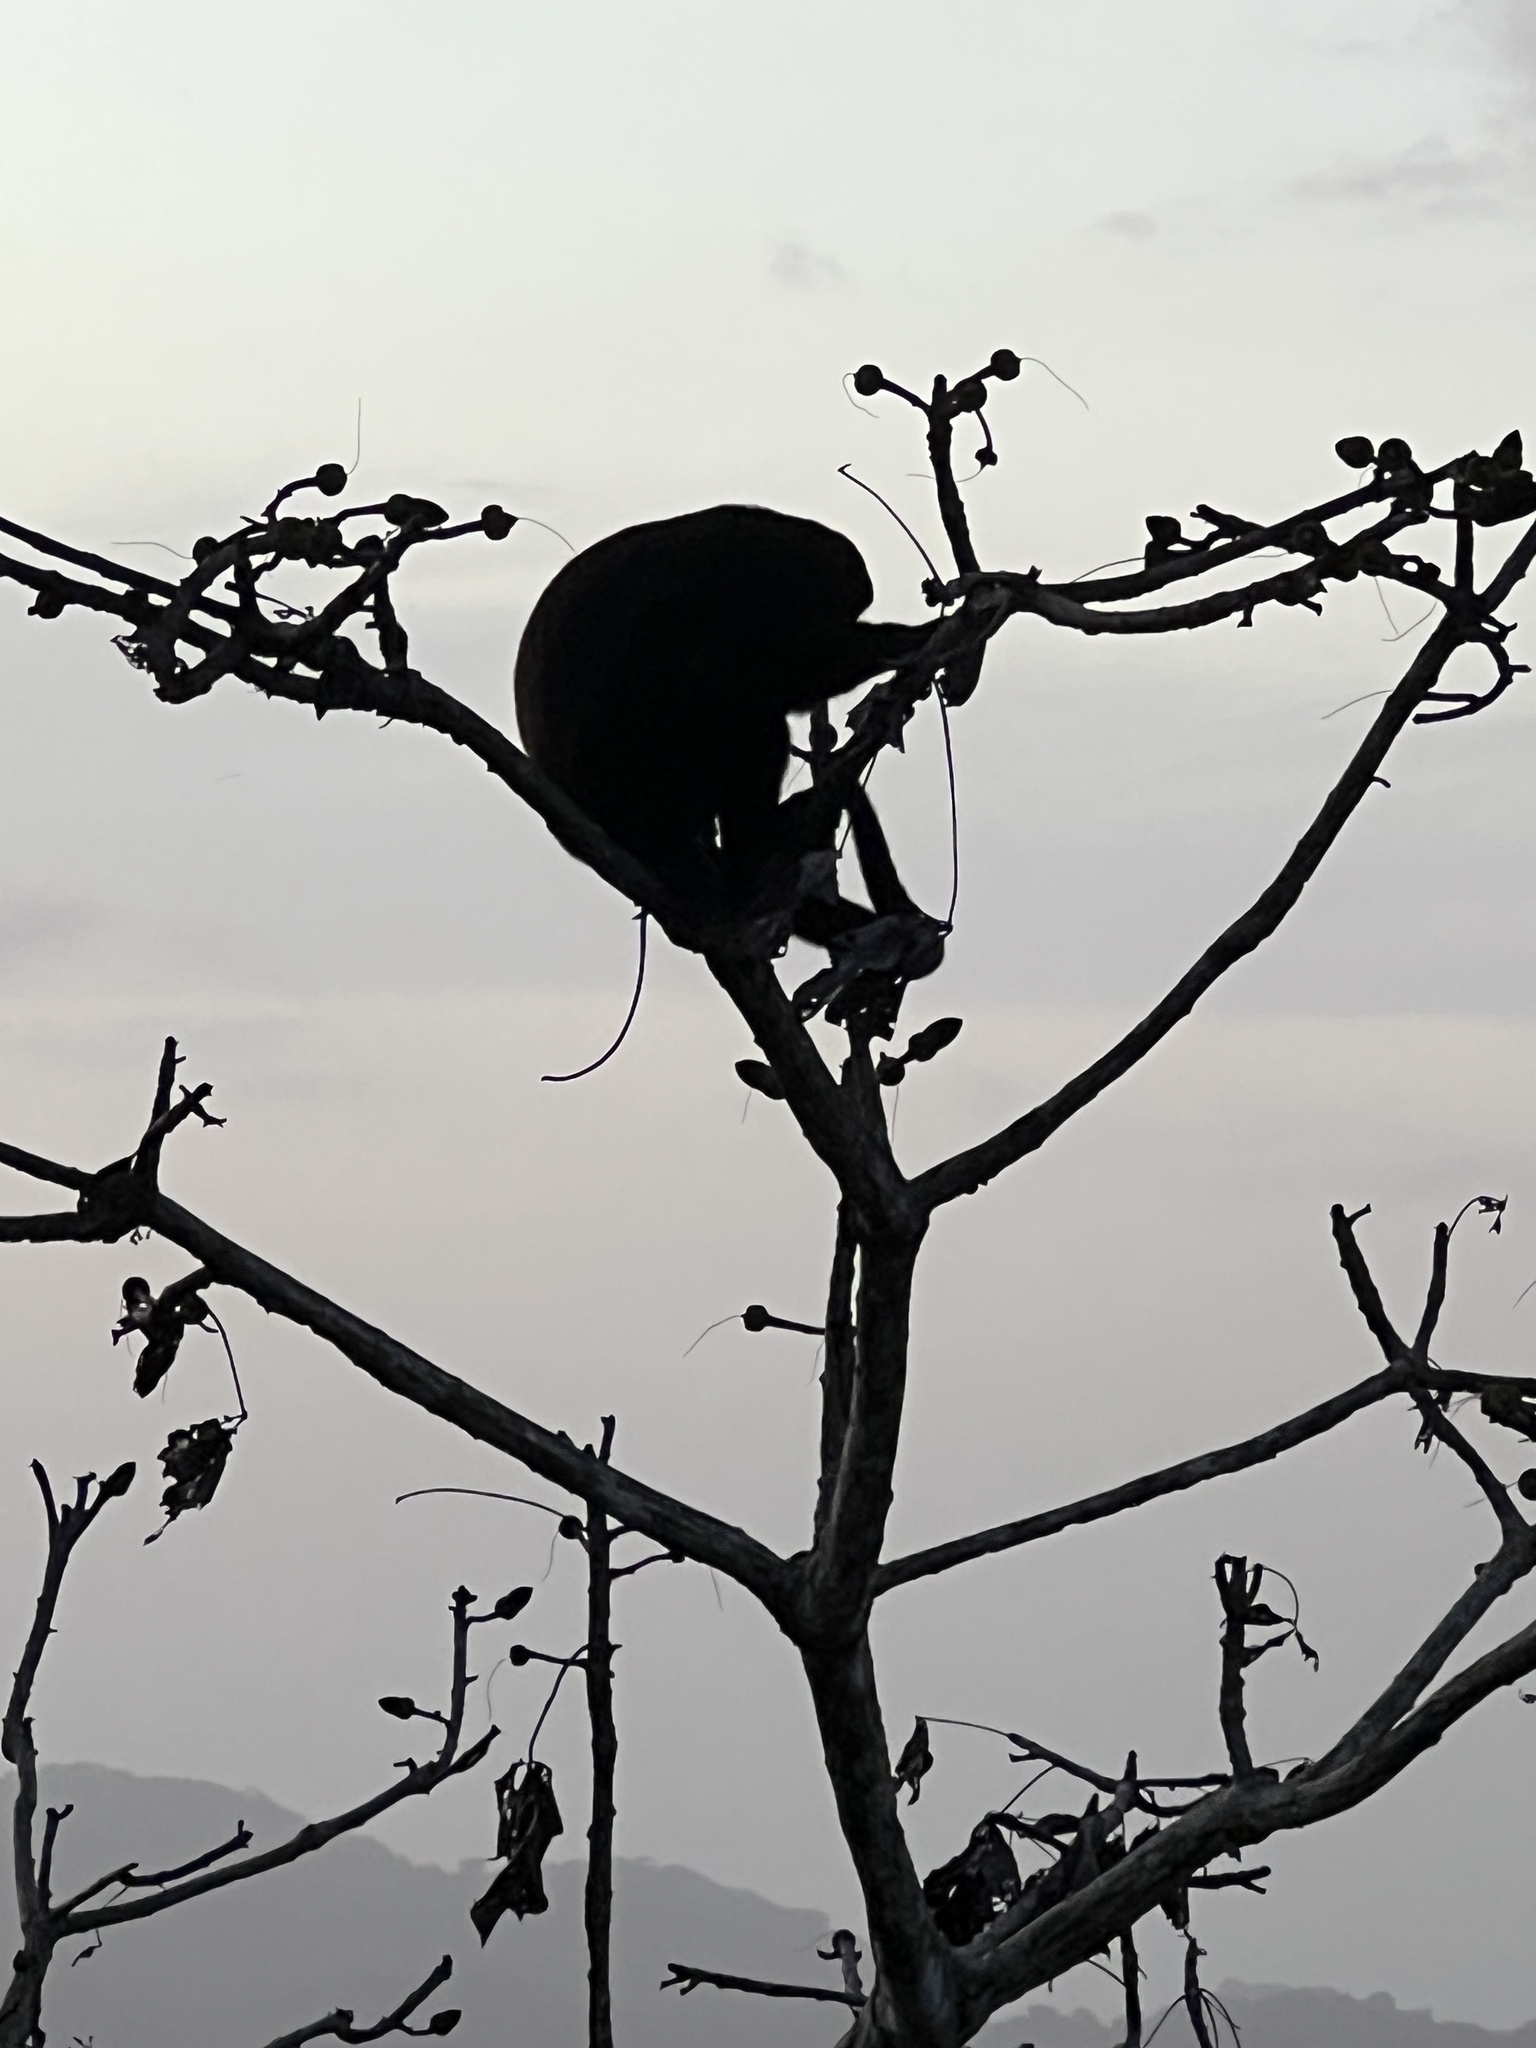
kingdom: Animalia
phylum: Chordata
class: Mammalia
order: Primates
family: Atelidae
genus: Alouatta
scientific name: Alouatta palliata
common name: Mantled howler
